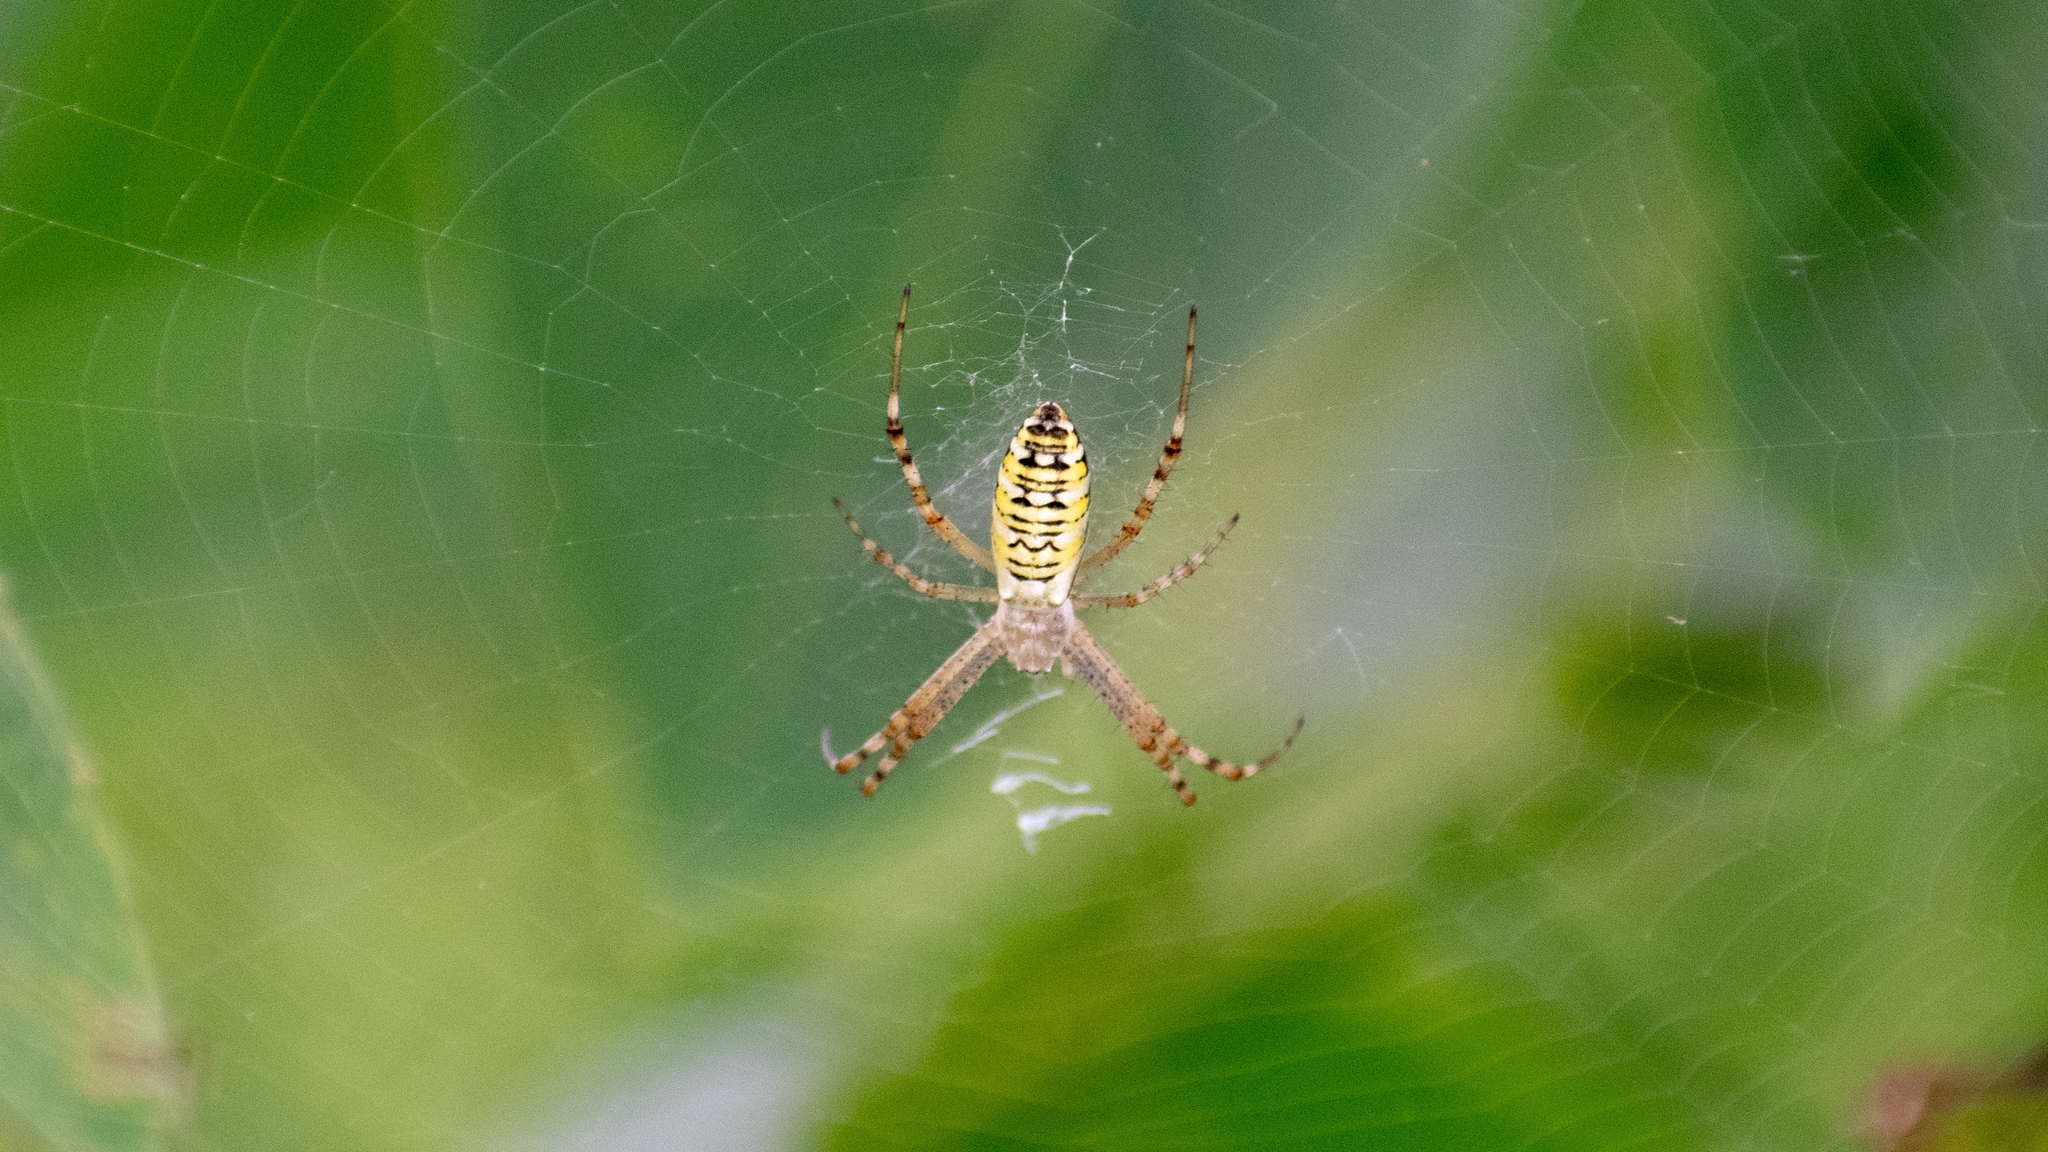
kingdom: Animalia
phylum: Arthropoda
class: Arachnida
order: Araneae
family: Araneidae
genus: Argiope
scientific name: Argiope bruennichi
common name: Wasp spider
